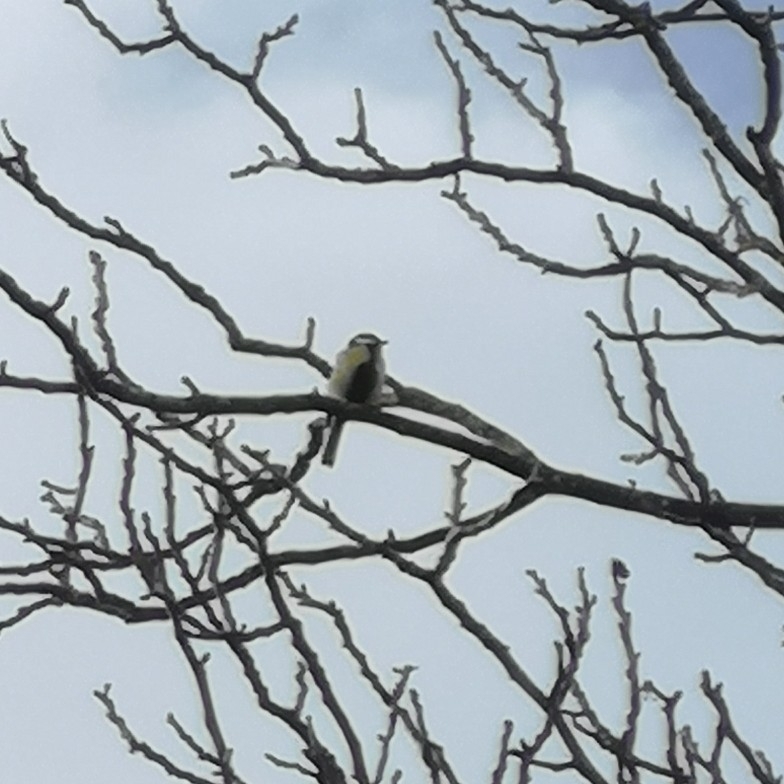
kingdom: Animalia
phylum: Chordata
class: Aves
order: Passeriformes
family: Paridae
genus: Parus
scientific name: Parus major
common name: Great tit
